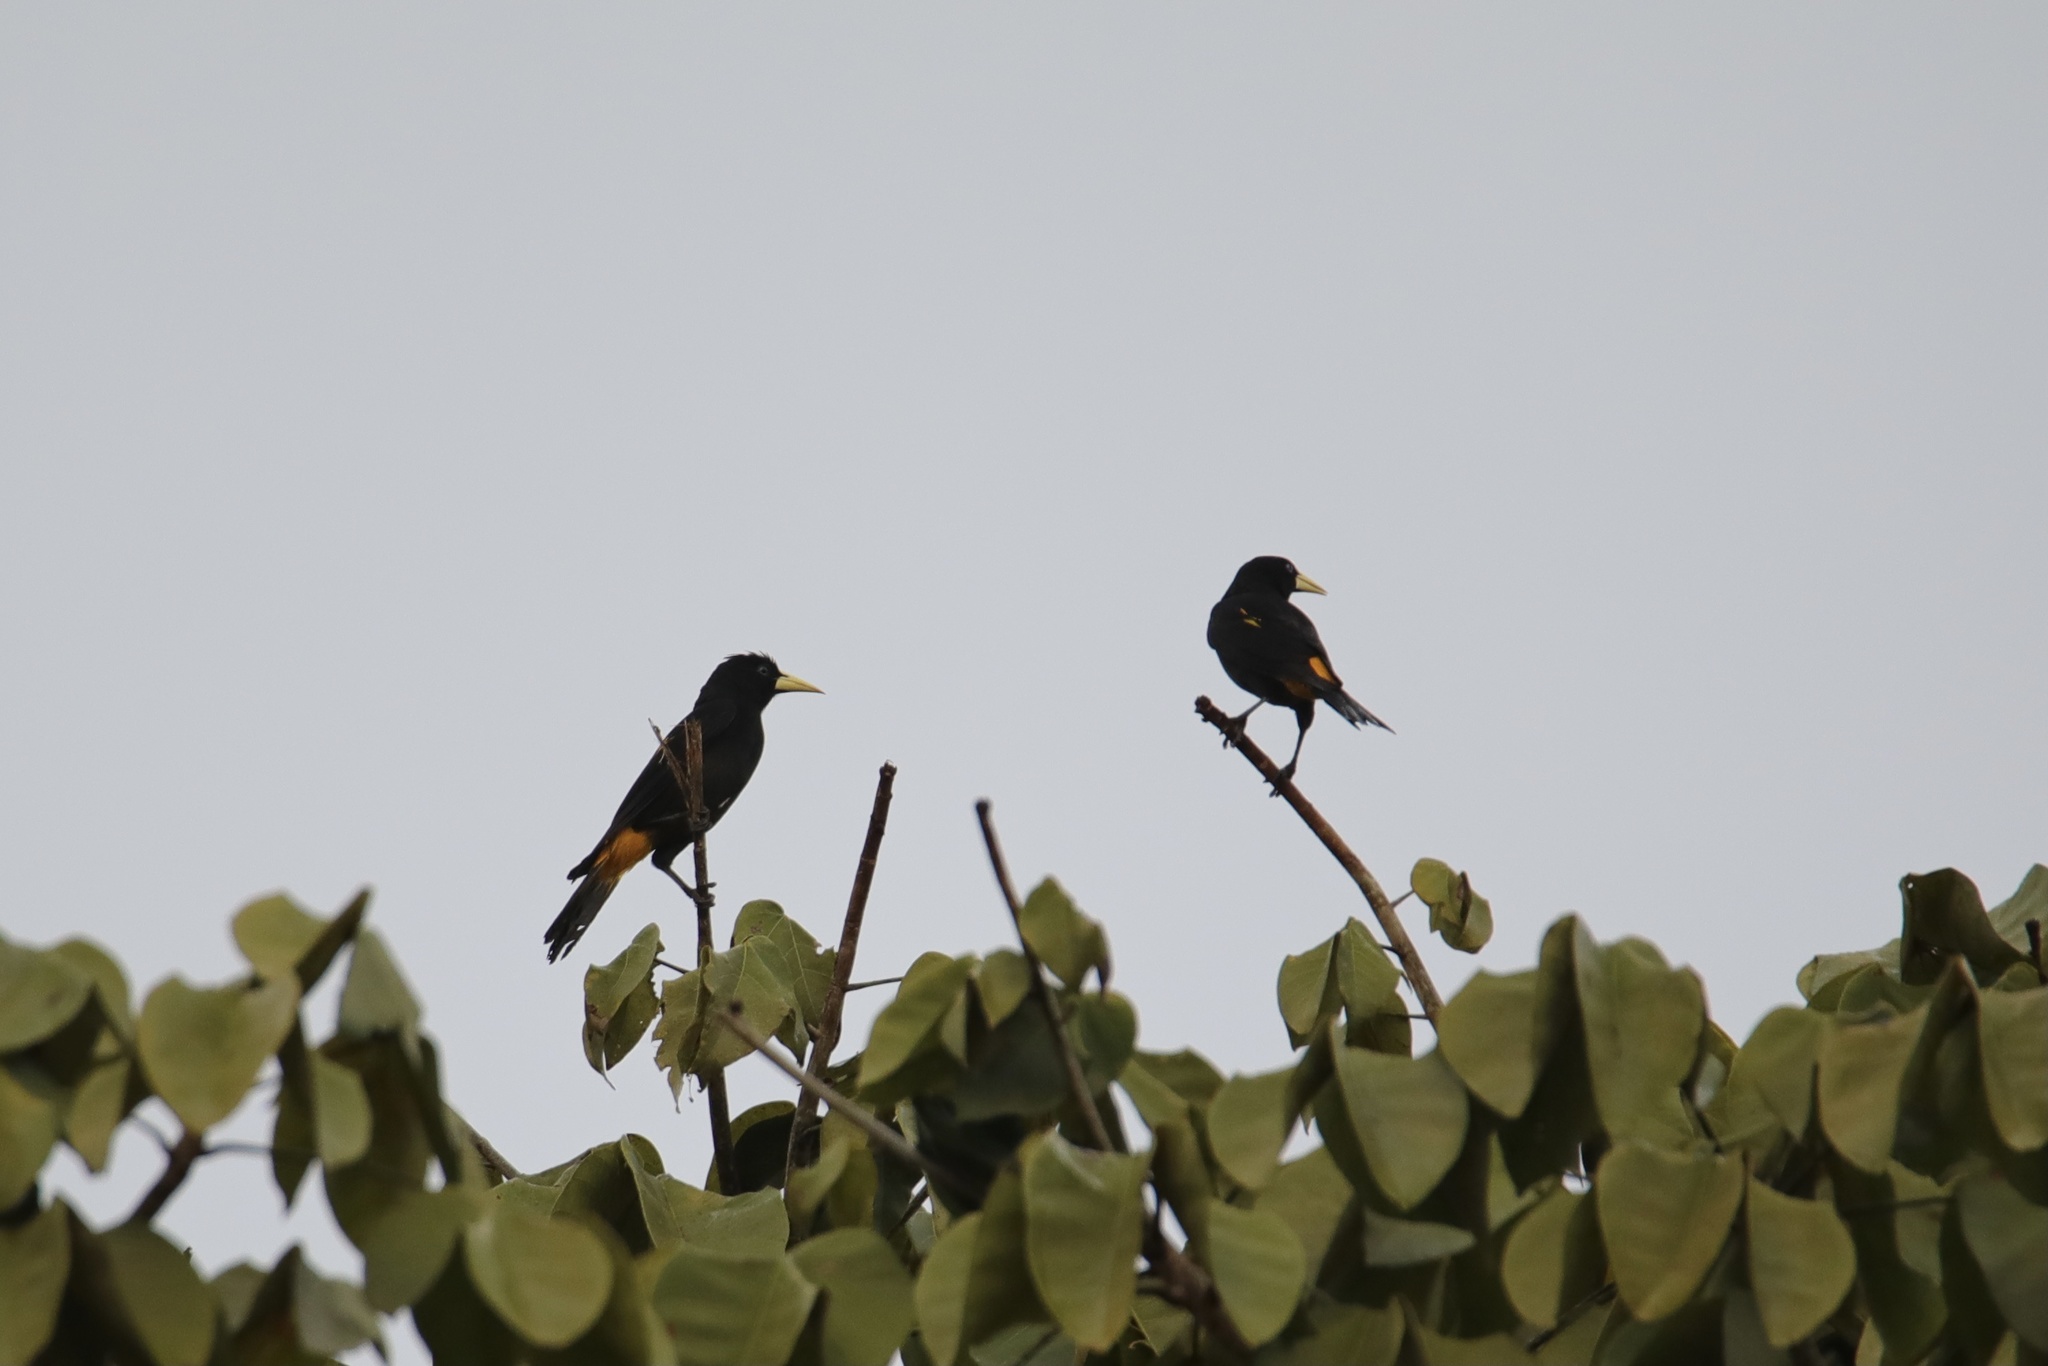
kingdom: Animalia
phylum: Chordata
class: Aves
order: Passeriformes
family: Icteridae
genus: Cacicus
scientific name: Cacicus cela
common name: Yellow-rumped cacique
